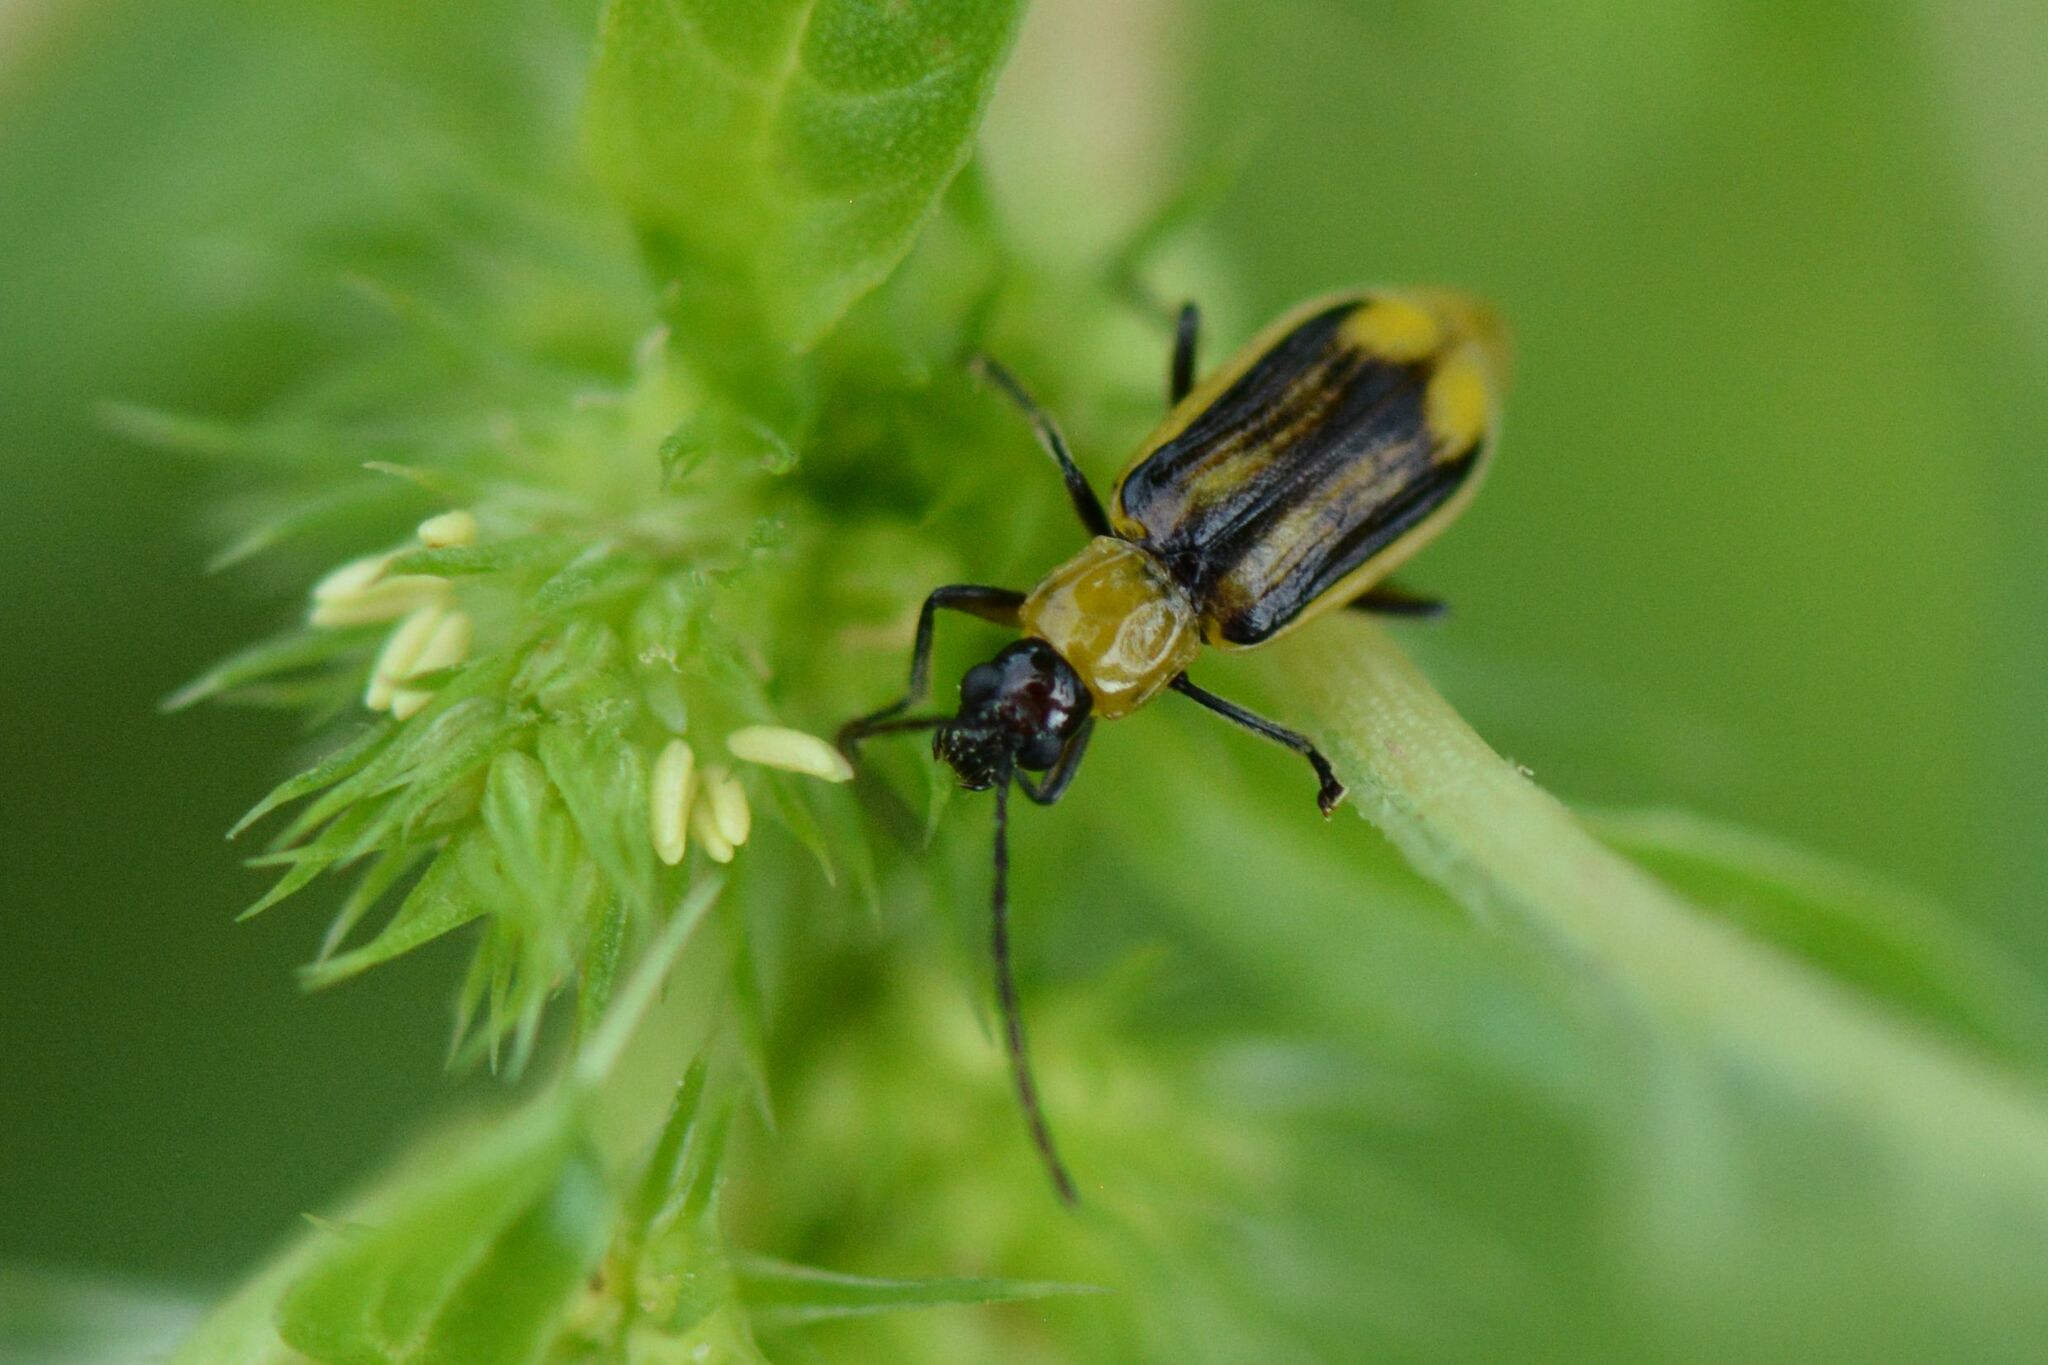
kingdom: Animalia
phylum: Arthropoda
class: Insecta
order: Coleoptera
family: Chrysomelidae
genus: Diabrotica
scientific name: Diabrotica virgifera
